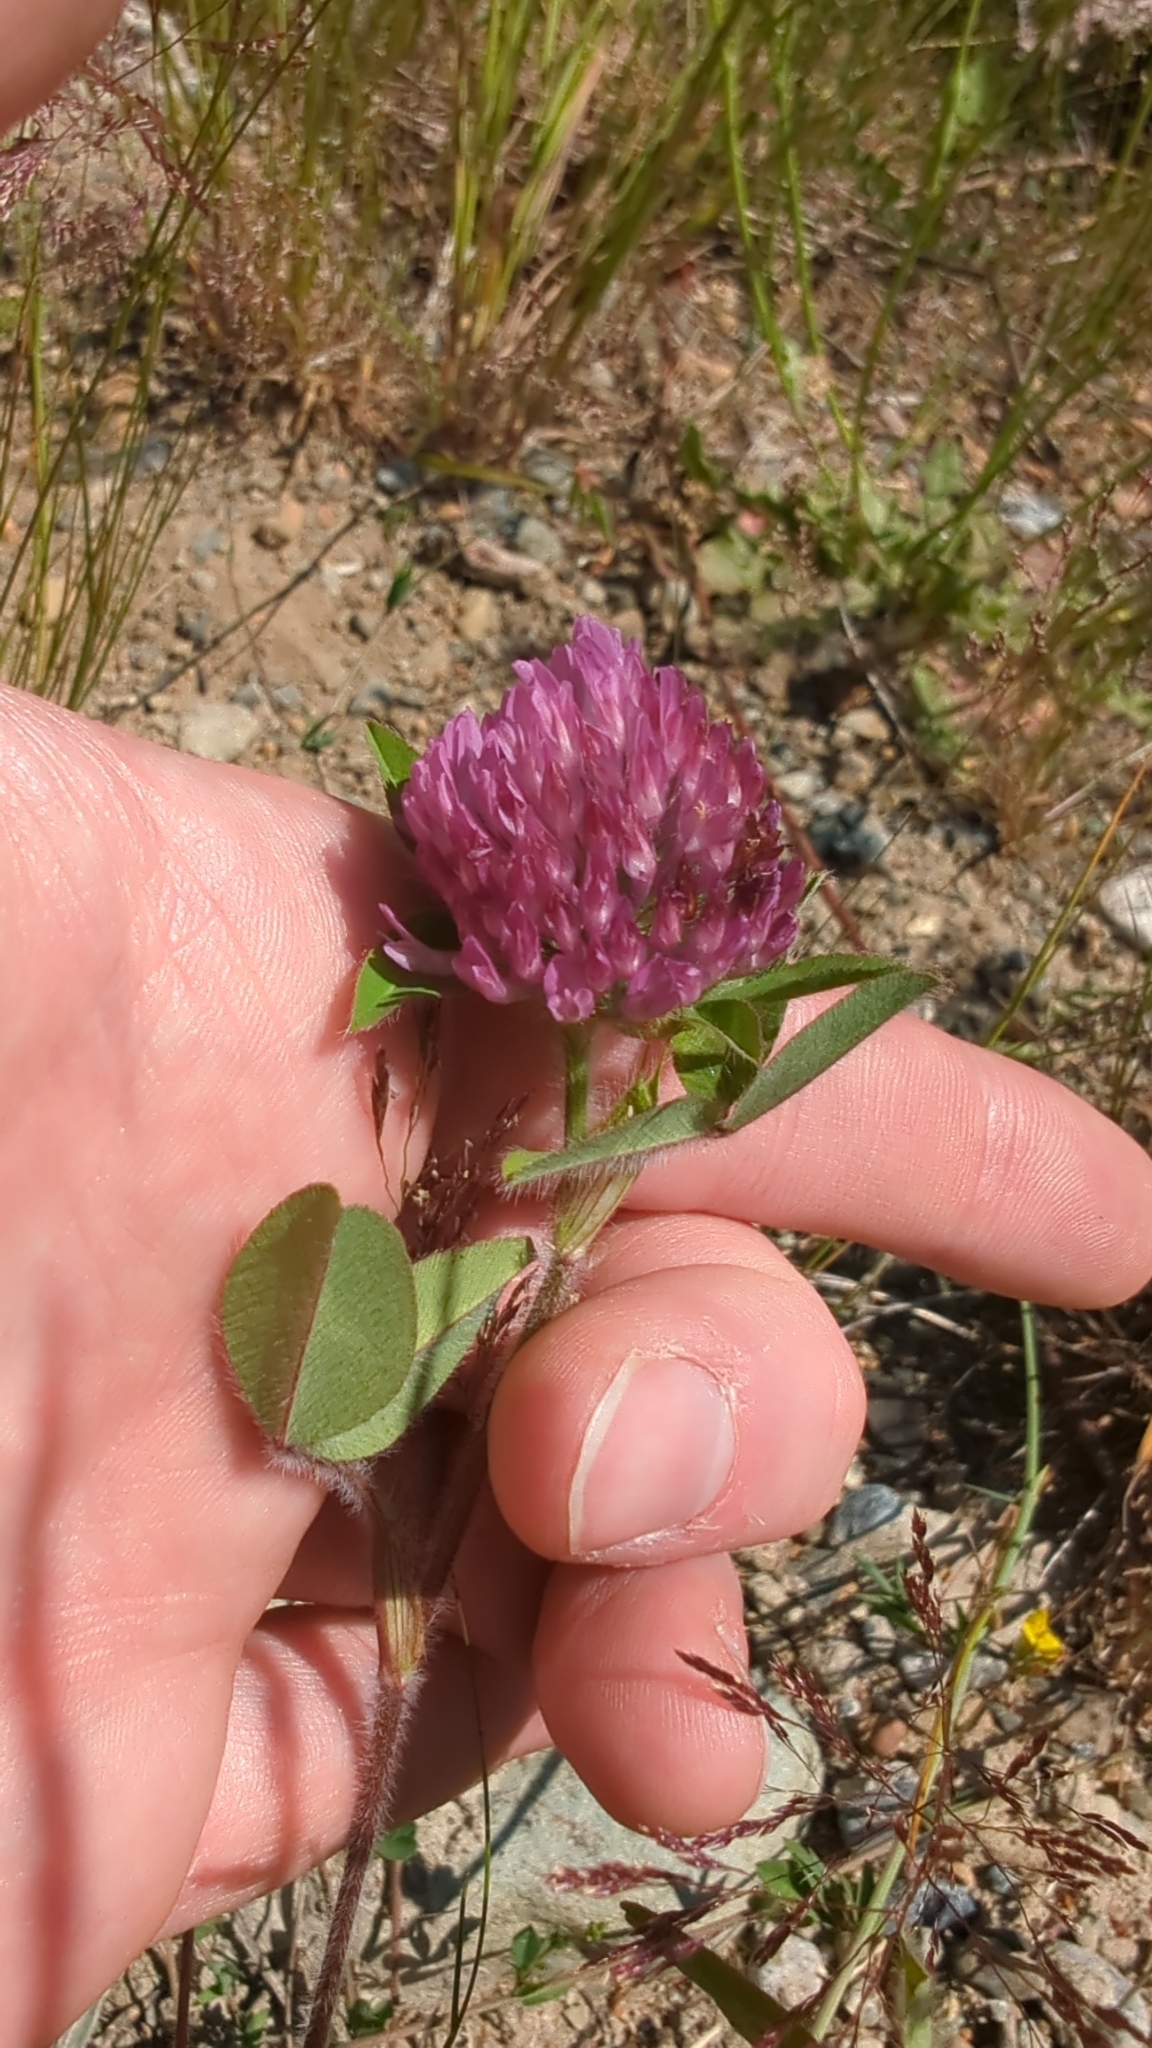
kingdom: Plantae
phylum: Tracheophyta
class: Magnoliopsida
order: Fabales
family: Fabaceae
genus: Trifolium
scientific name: Trifolium pratense
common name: Red clover
